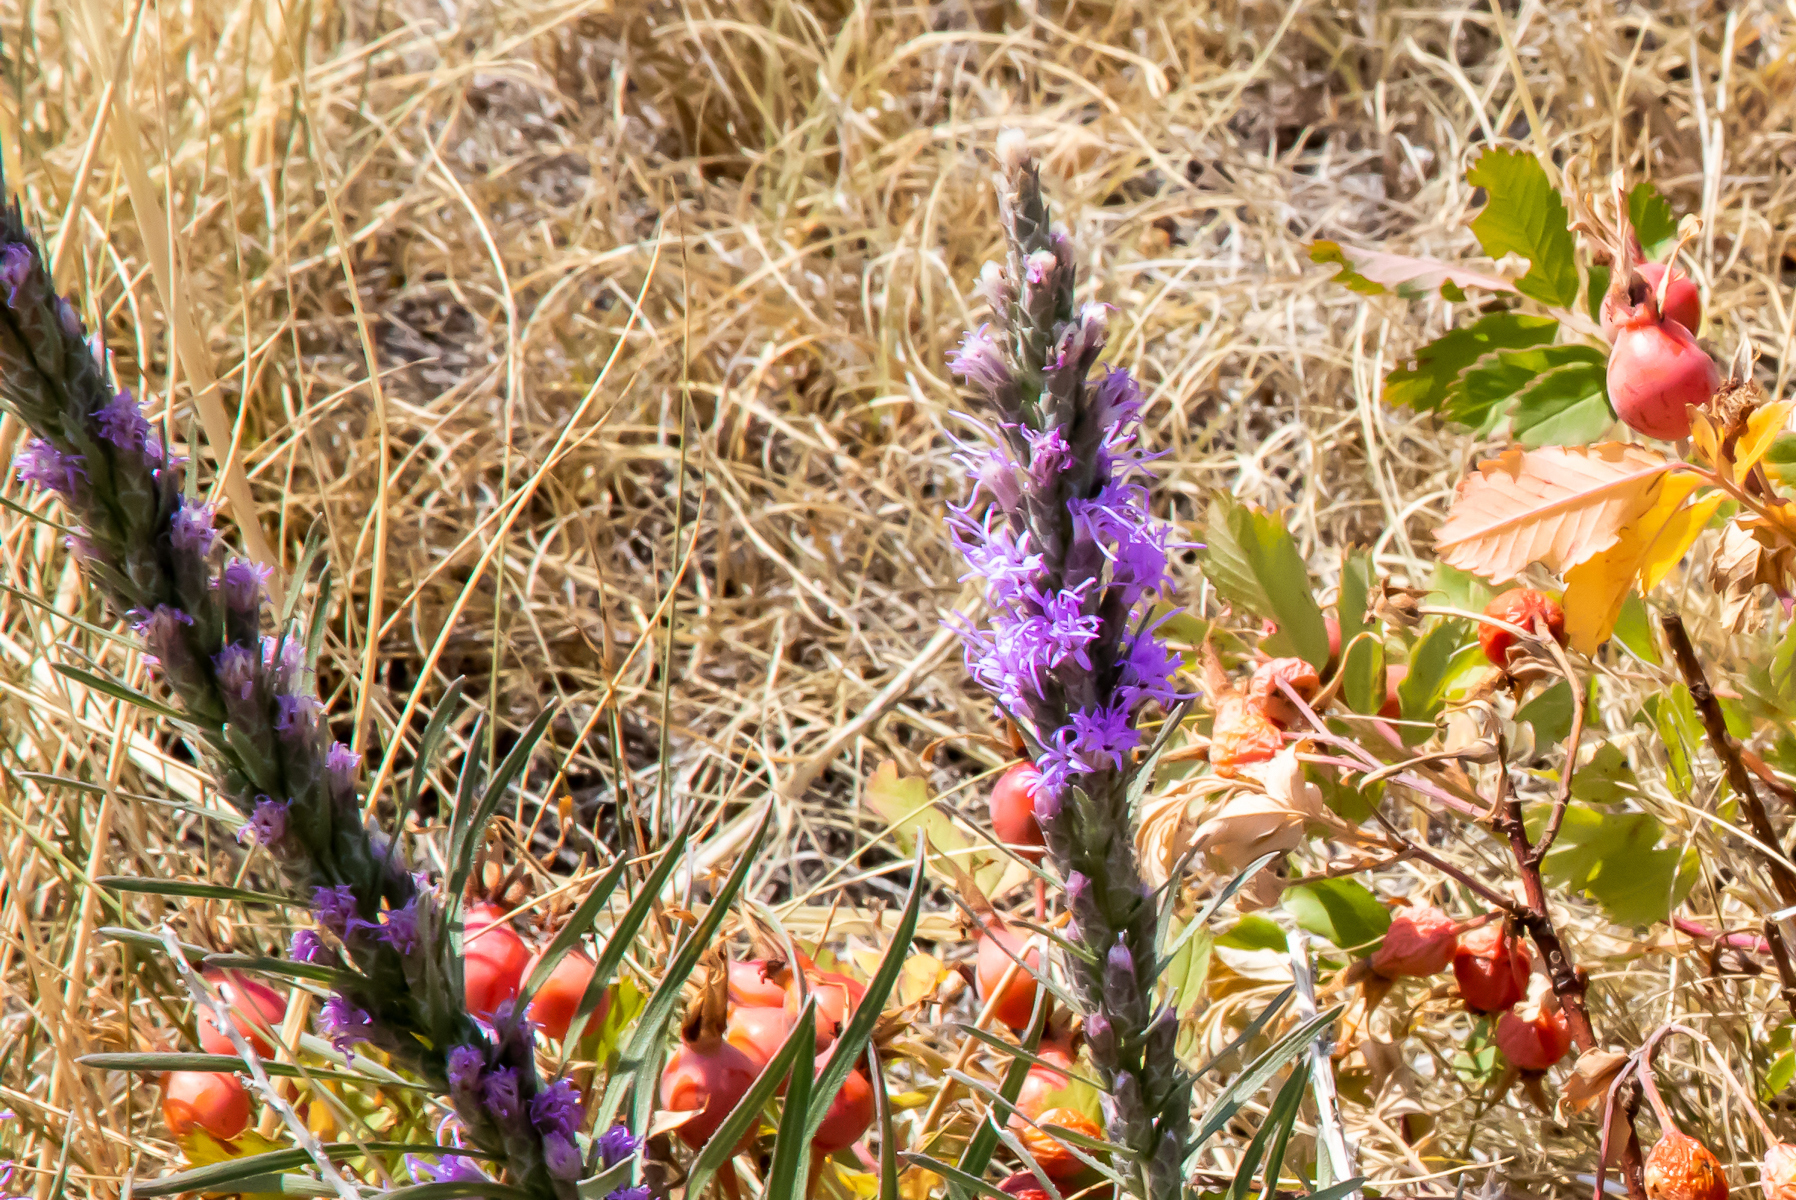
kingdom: Plantae
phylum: Tracheophyta
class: Magnoliopsida
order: Asterales
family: Asteraceae
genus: Liatris
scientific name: Liatris punctata
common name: Dotted gayfeather
